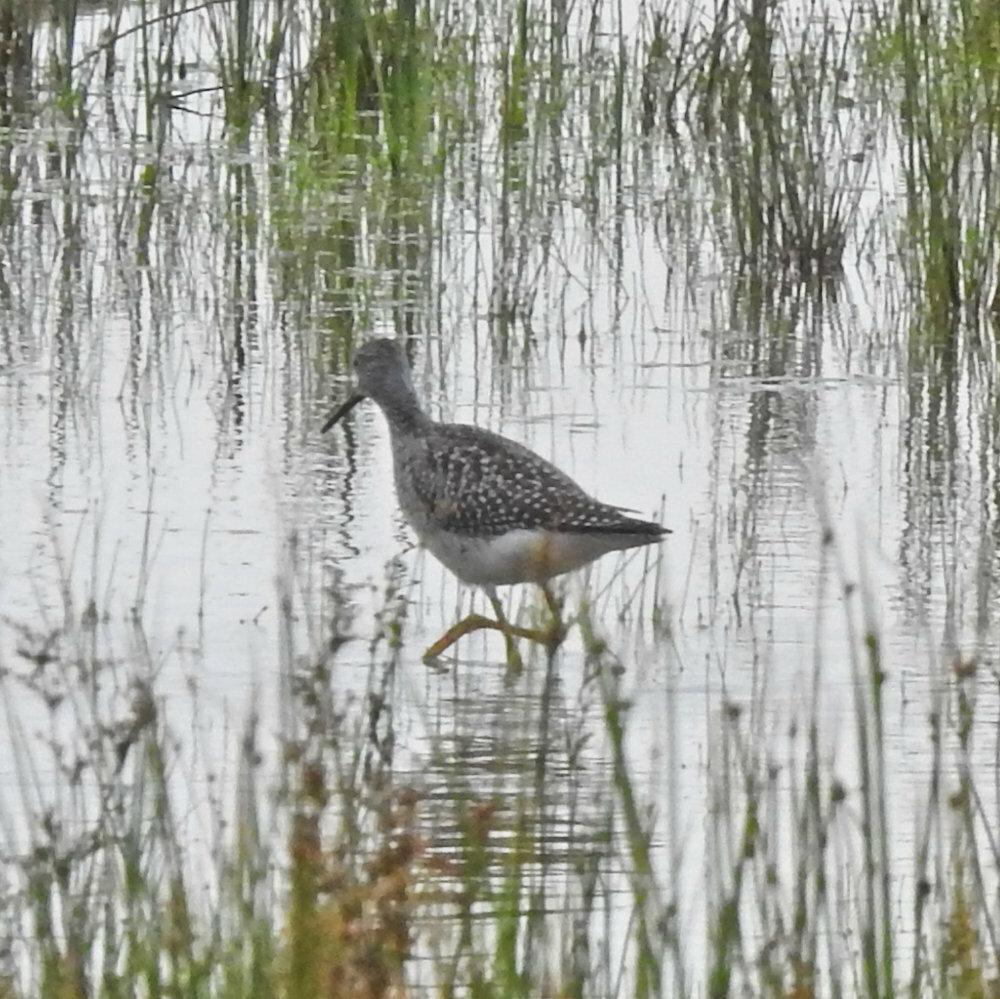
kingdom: Animalia
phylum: Chordata
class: Aves
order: Charadriiformes
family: Scolopacidae
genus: Tringa
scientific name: Tringa melanoleuca
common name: Greater yellowlegs
